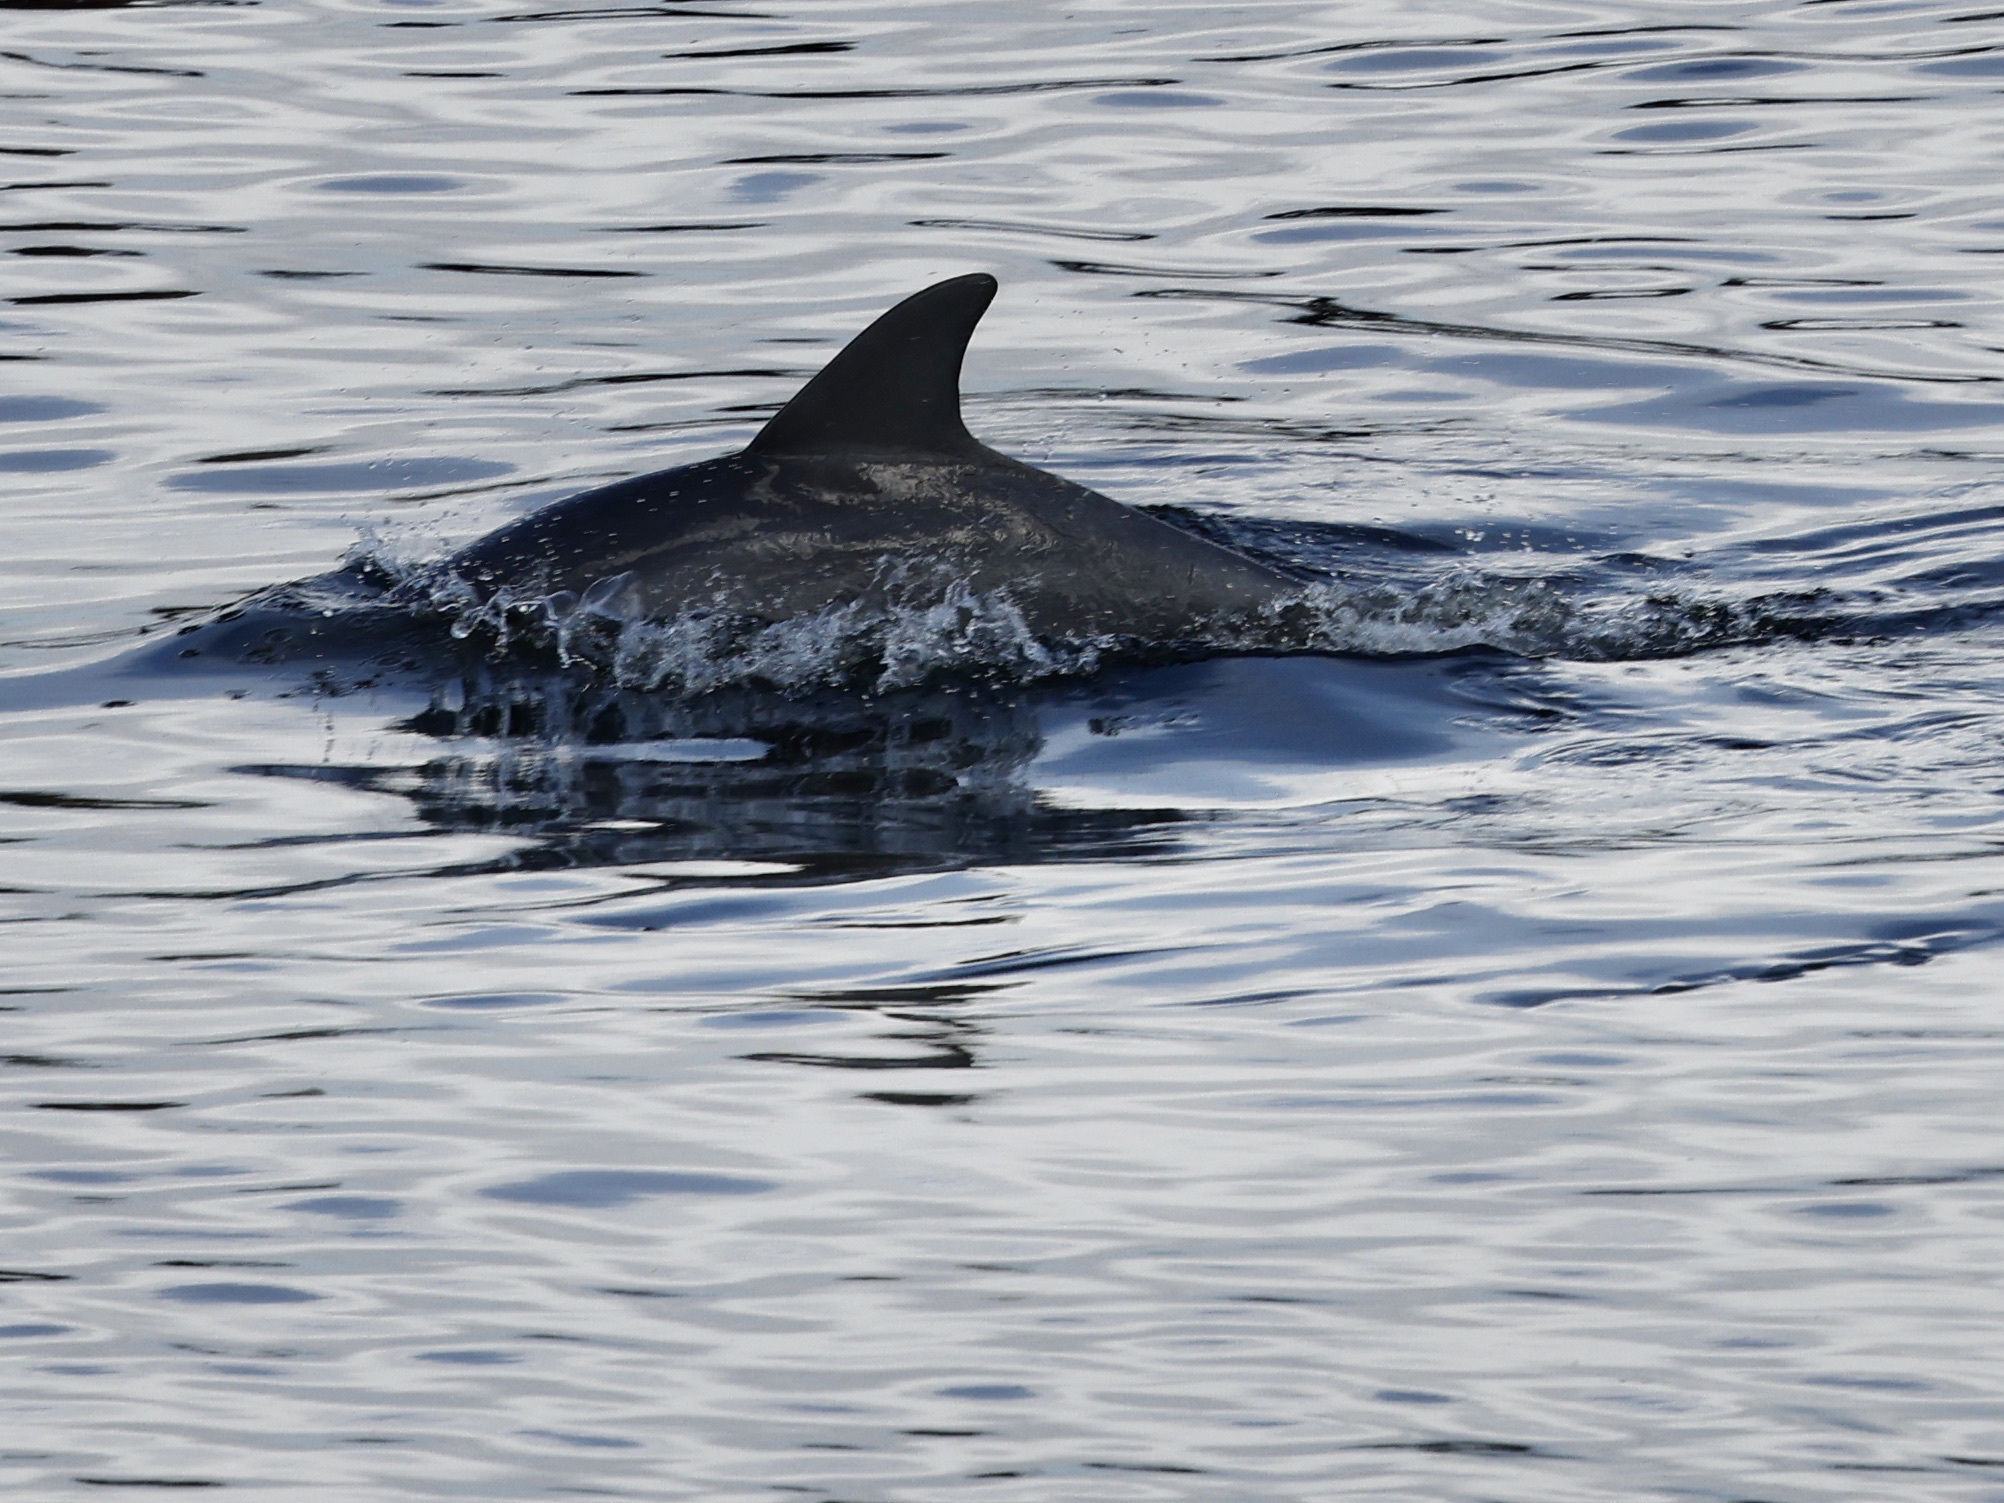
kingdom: Animalia
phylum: Chordata
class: Mammalia
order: Cetacea
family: Delphinidae
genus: Tursiops
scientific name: Tursiops truncatus
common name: Bottlenose dolphin
